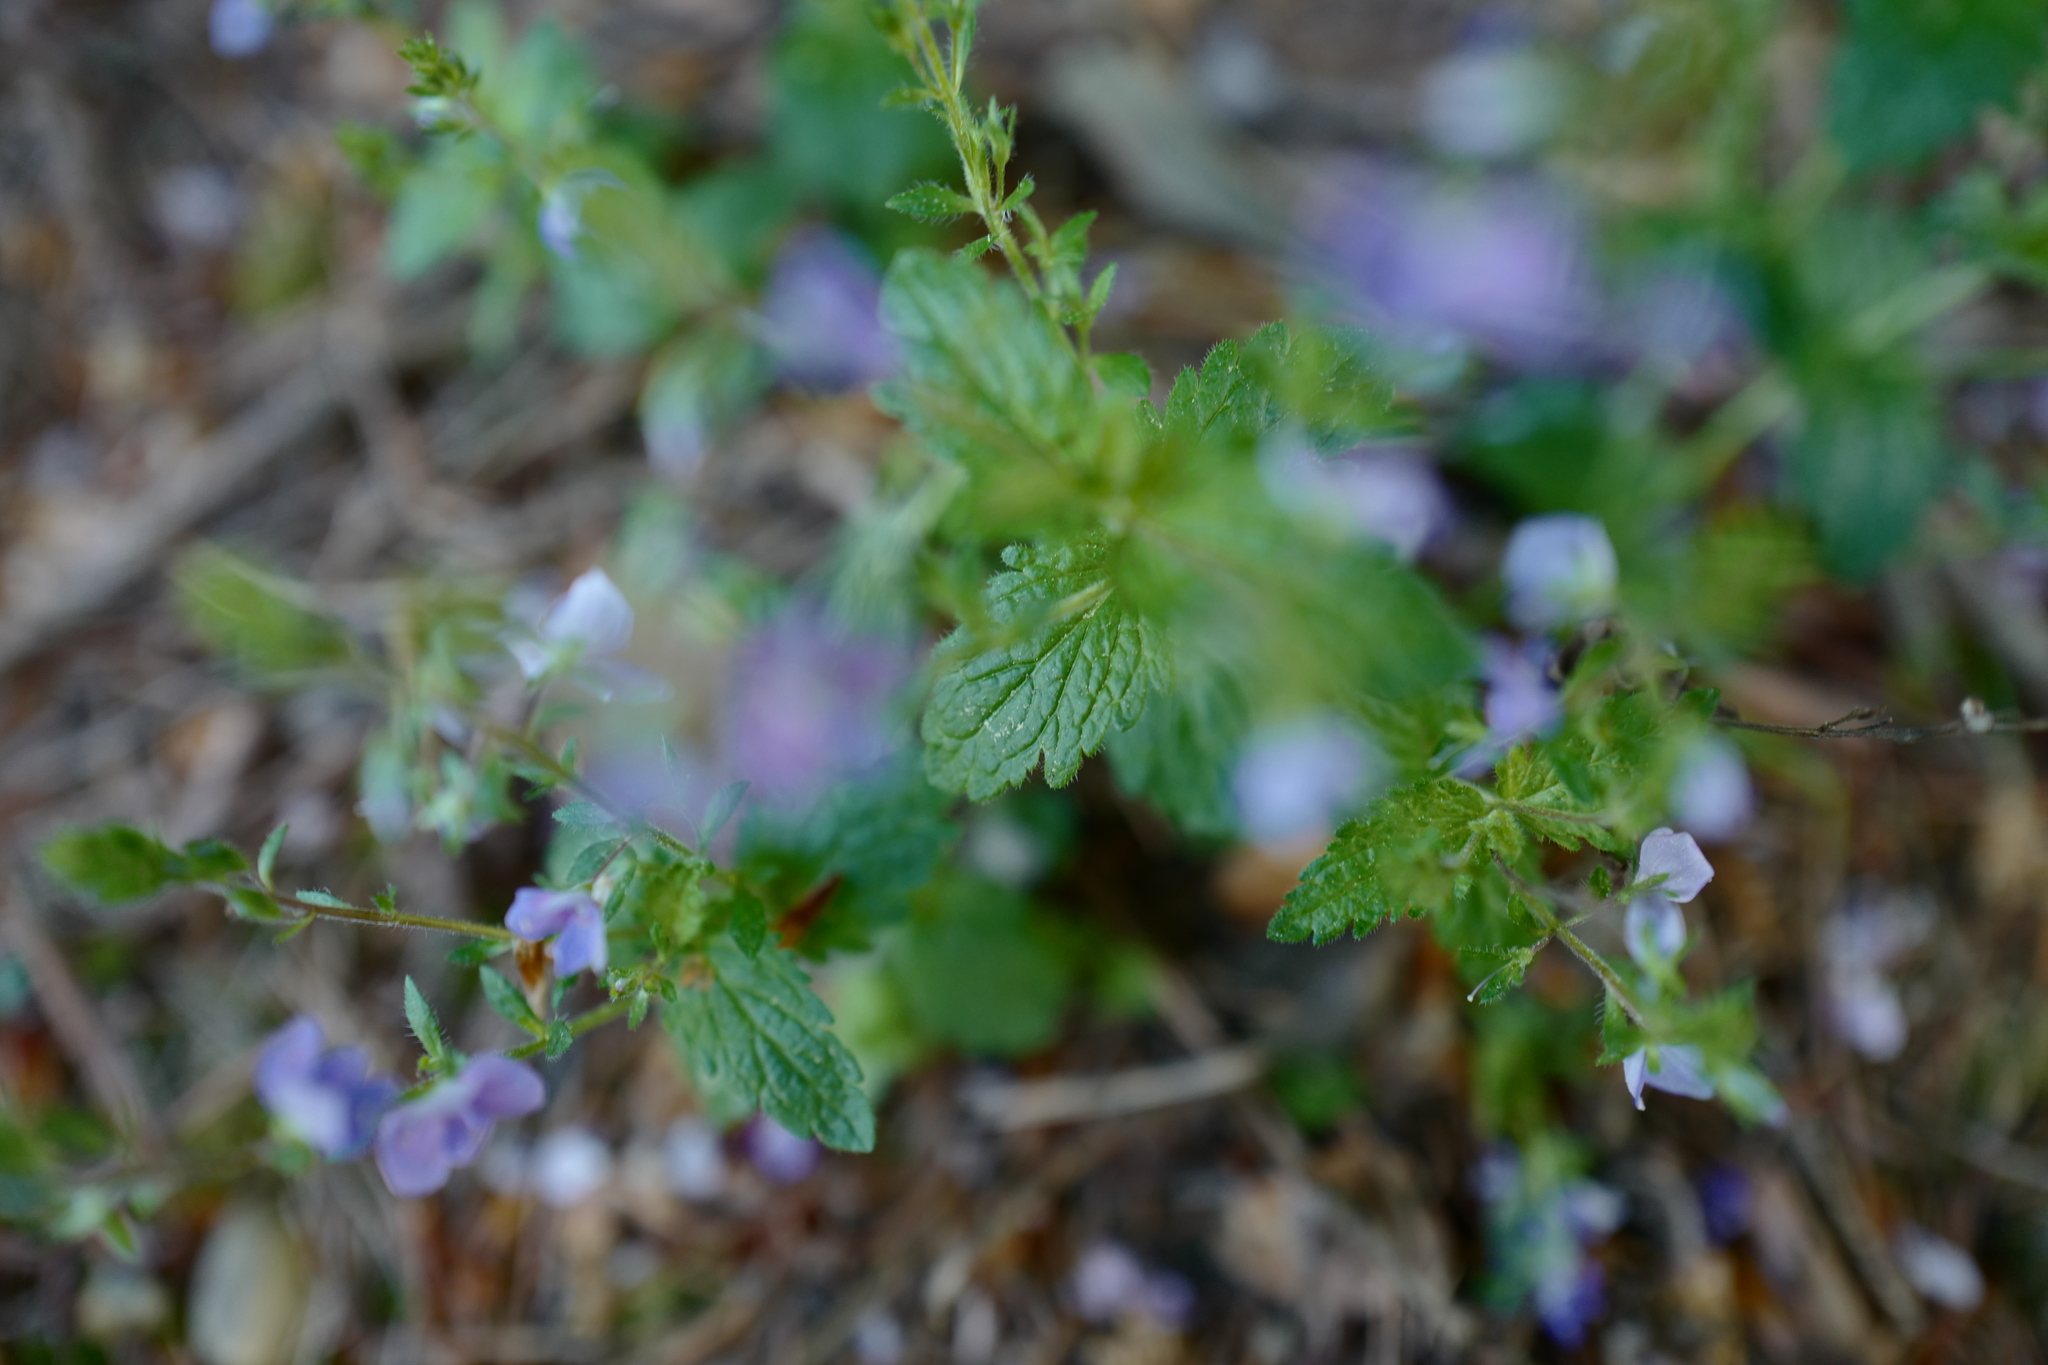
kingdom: Plantae
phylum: Tracheophyta
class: Magnoliopsida
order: Lamiales
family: Plantaginaceae
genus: Veronica
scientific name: Veronica chamaedrys
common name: Germander speedwell
